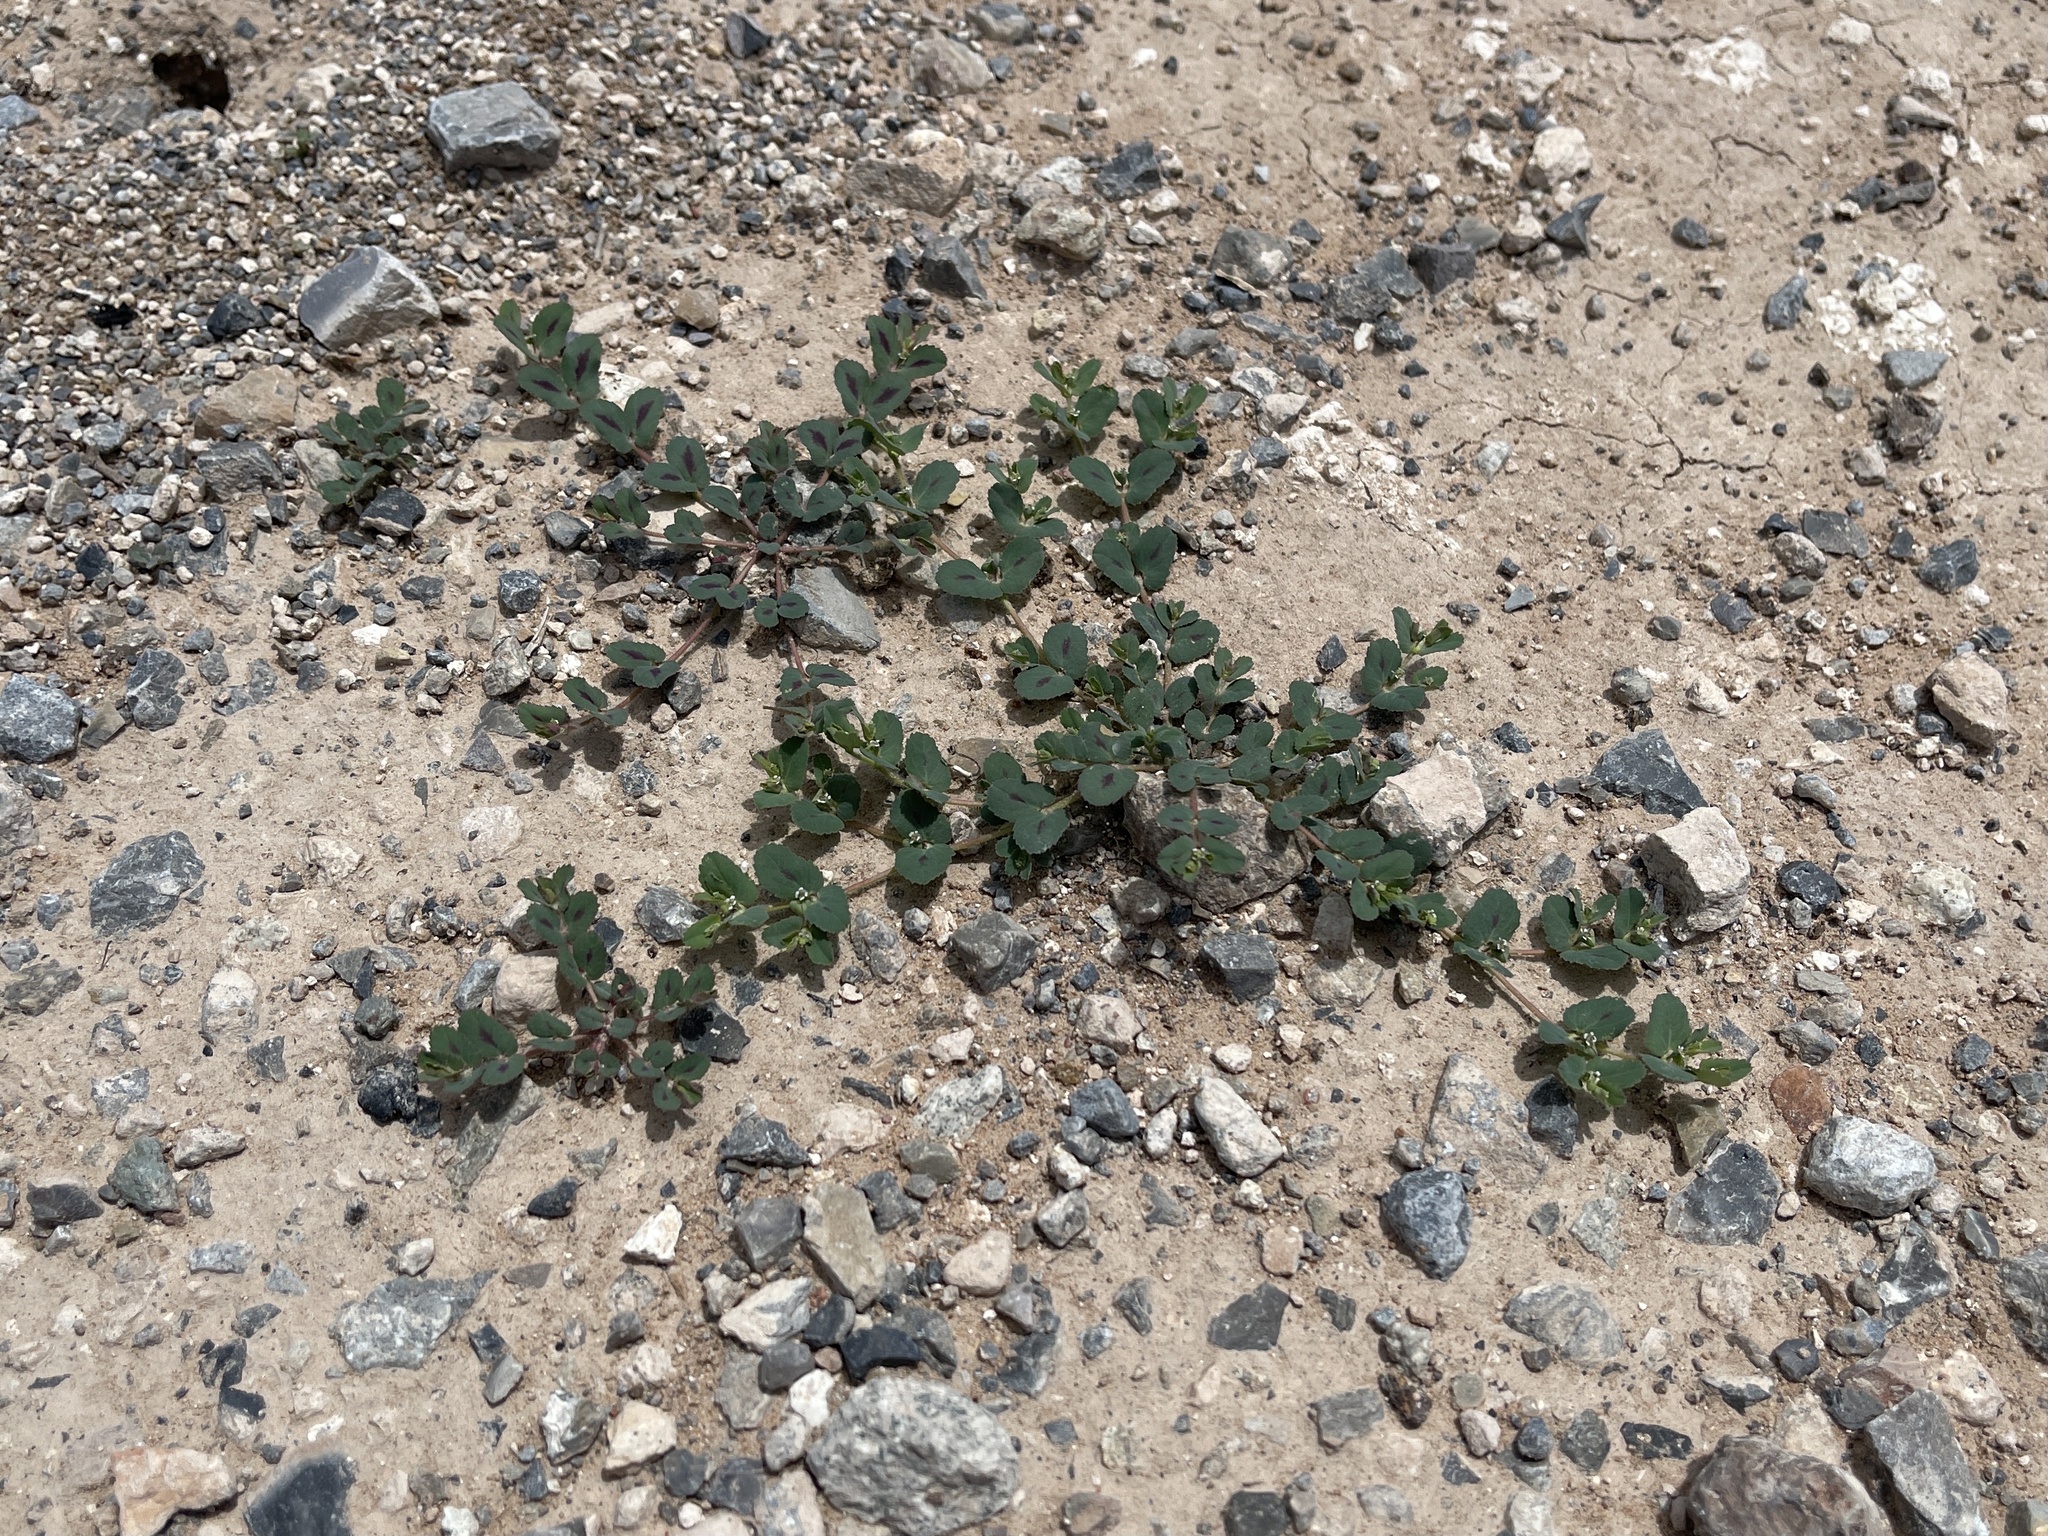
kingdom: Plantae
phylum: Tracheophyta
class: Magnoliopsida
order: Malpighiales
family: Euphorbiaceae
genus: Euphorbia
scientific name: Euphorbia serrula
